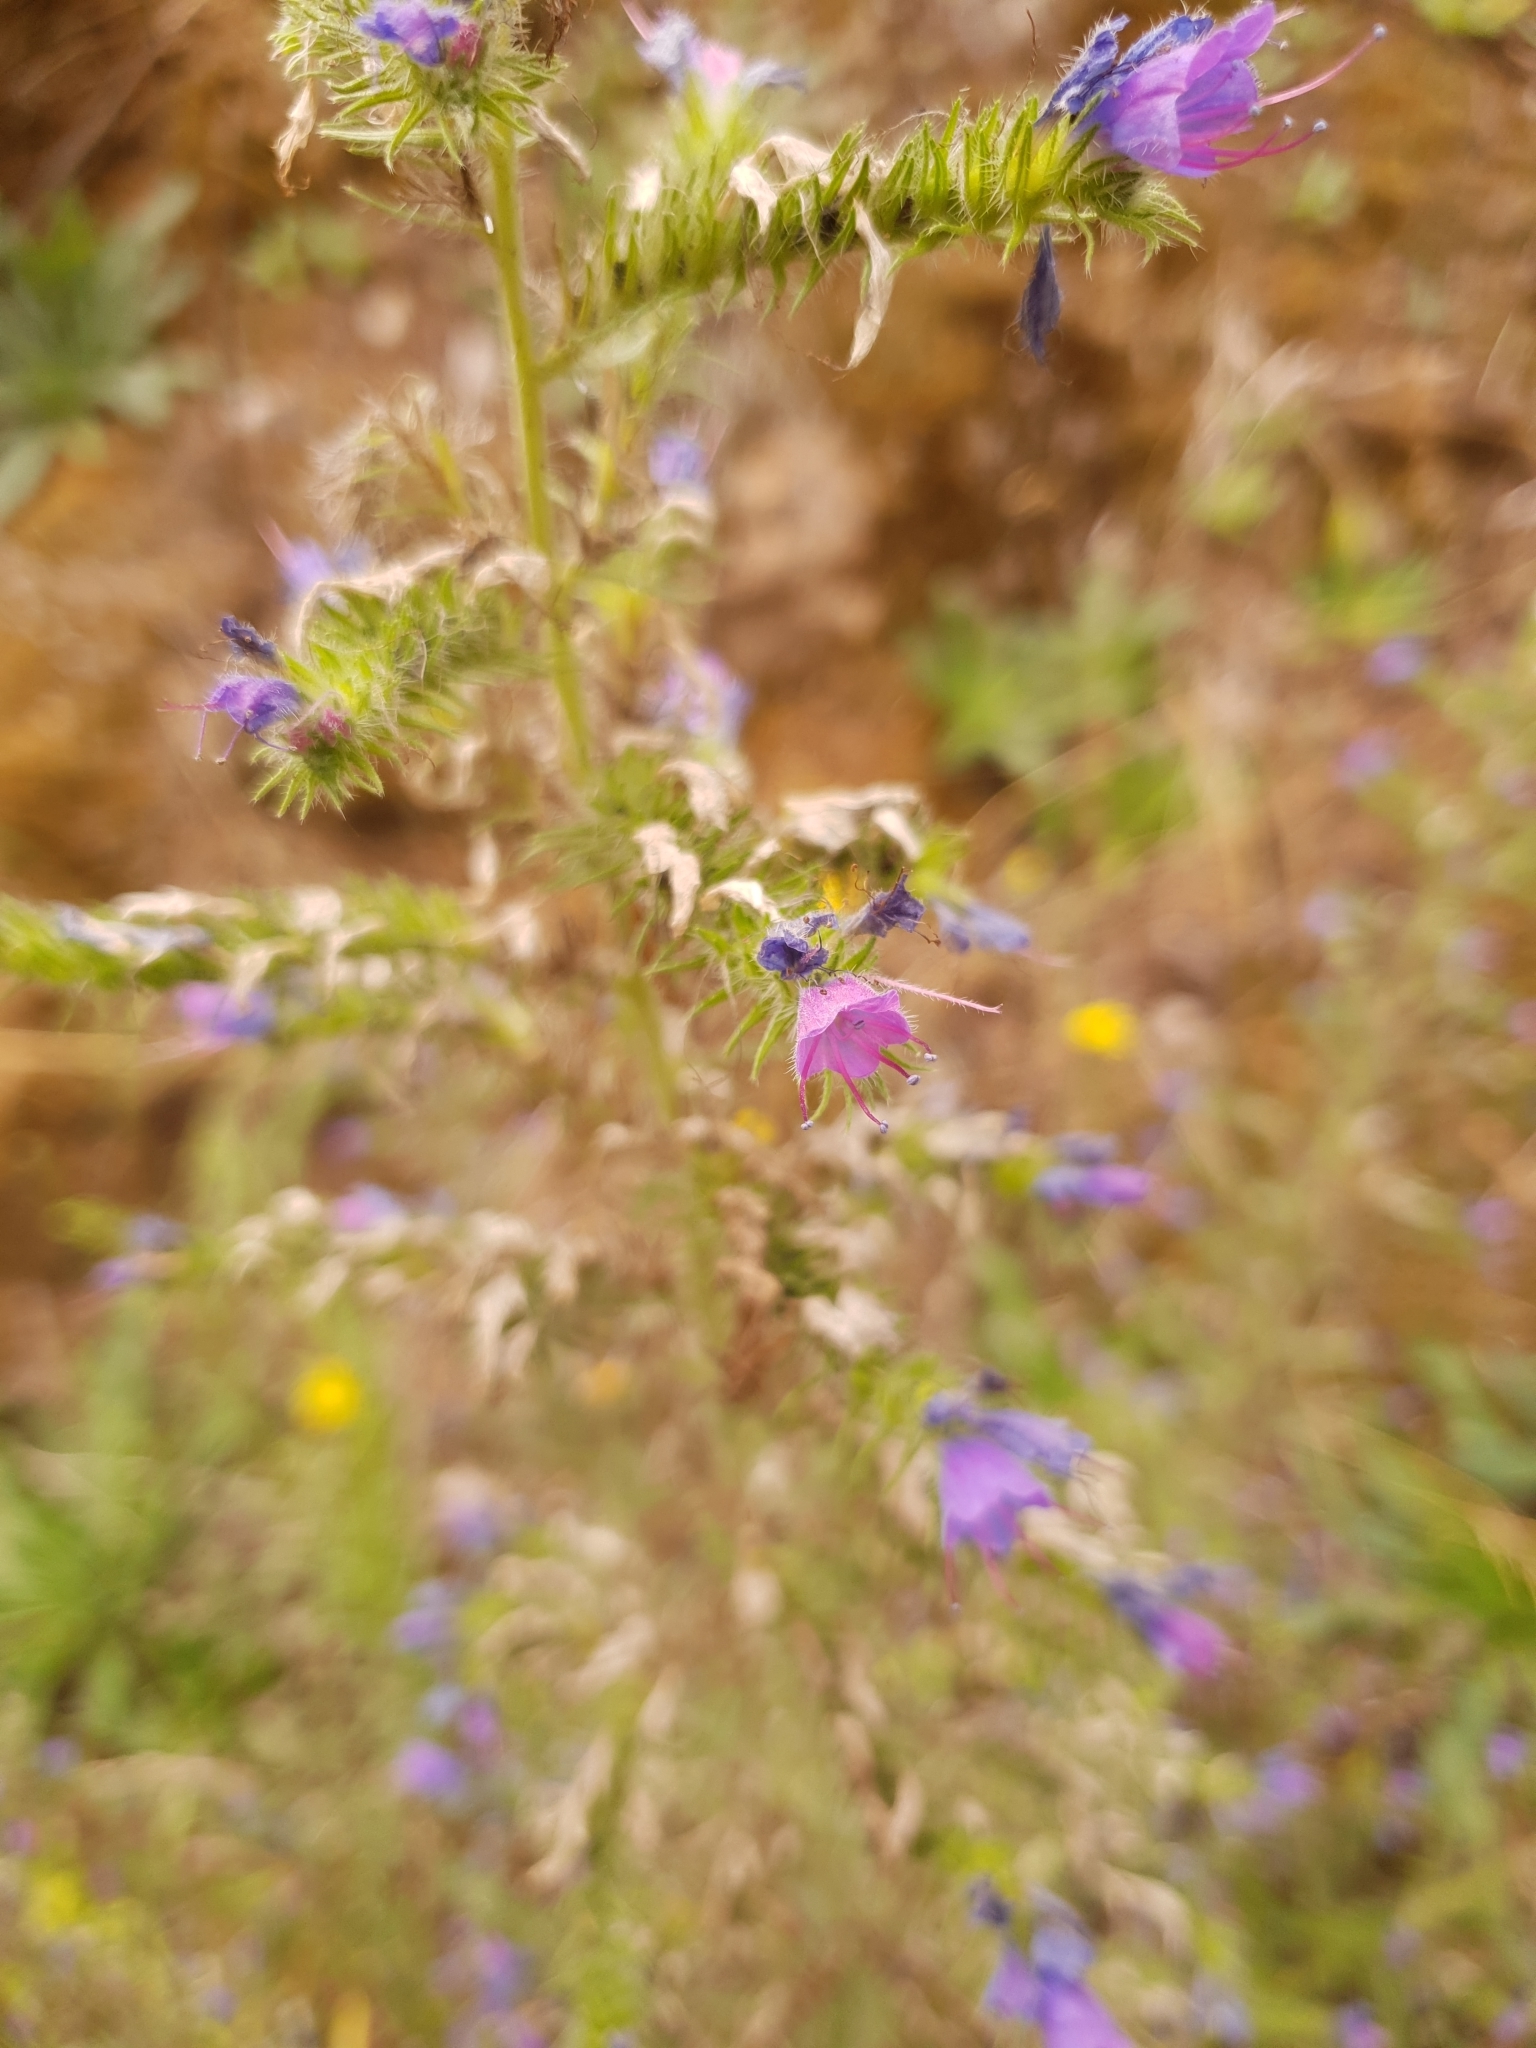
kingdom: Plantae
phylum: Tracheophyta
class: Magnoliopsida
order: Boraginales
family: Boraginaceae
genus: Echium
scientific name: Echium vulgare
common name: Common viper's bugloss
